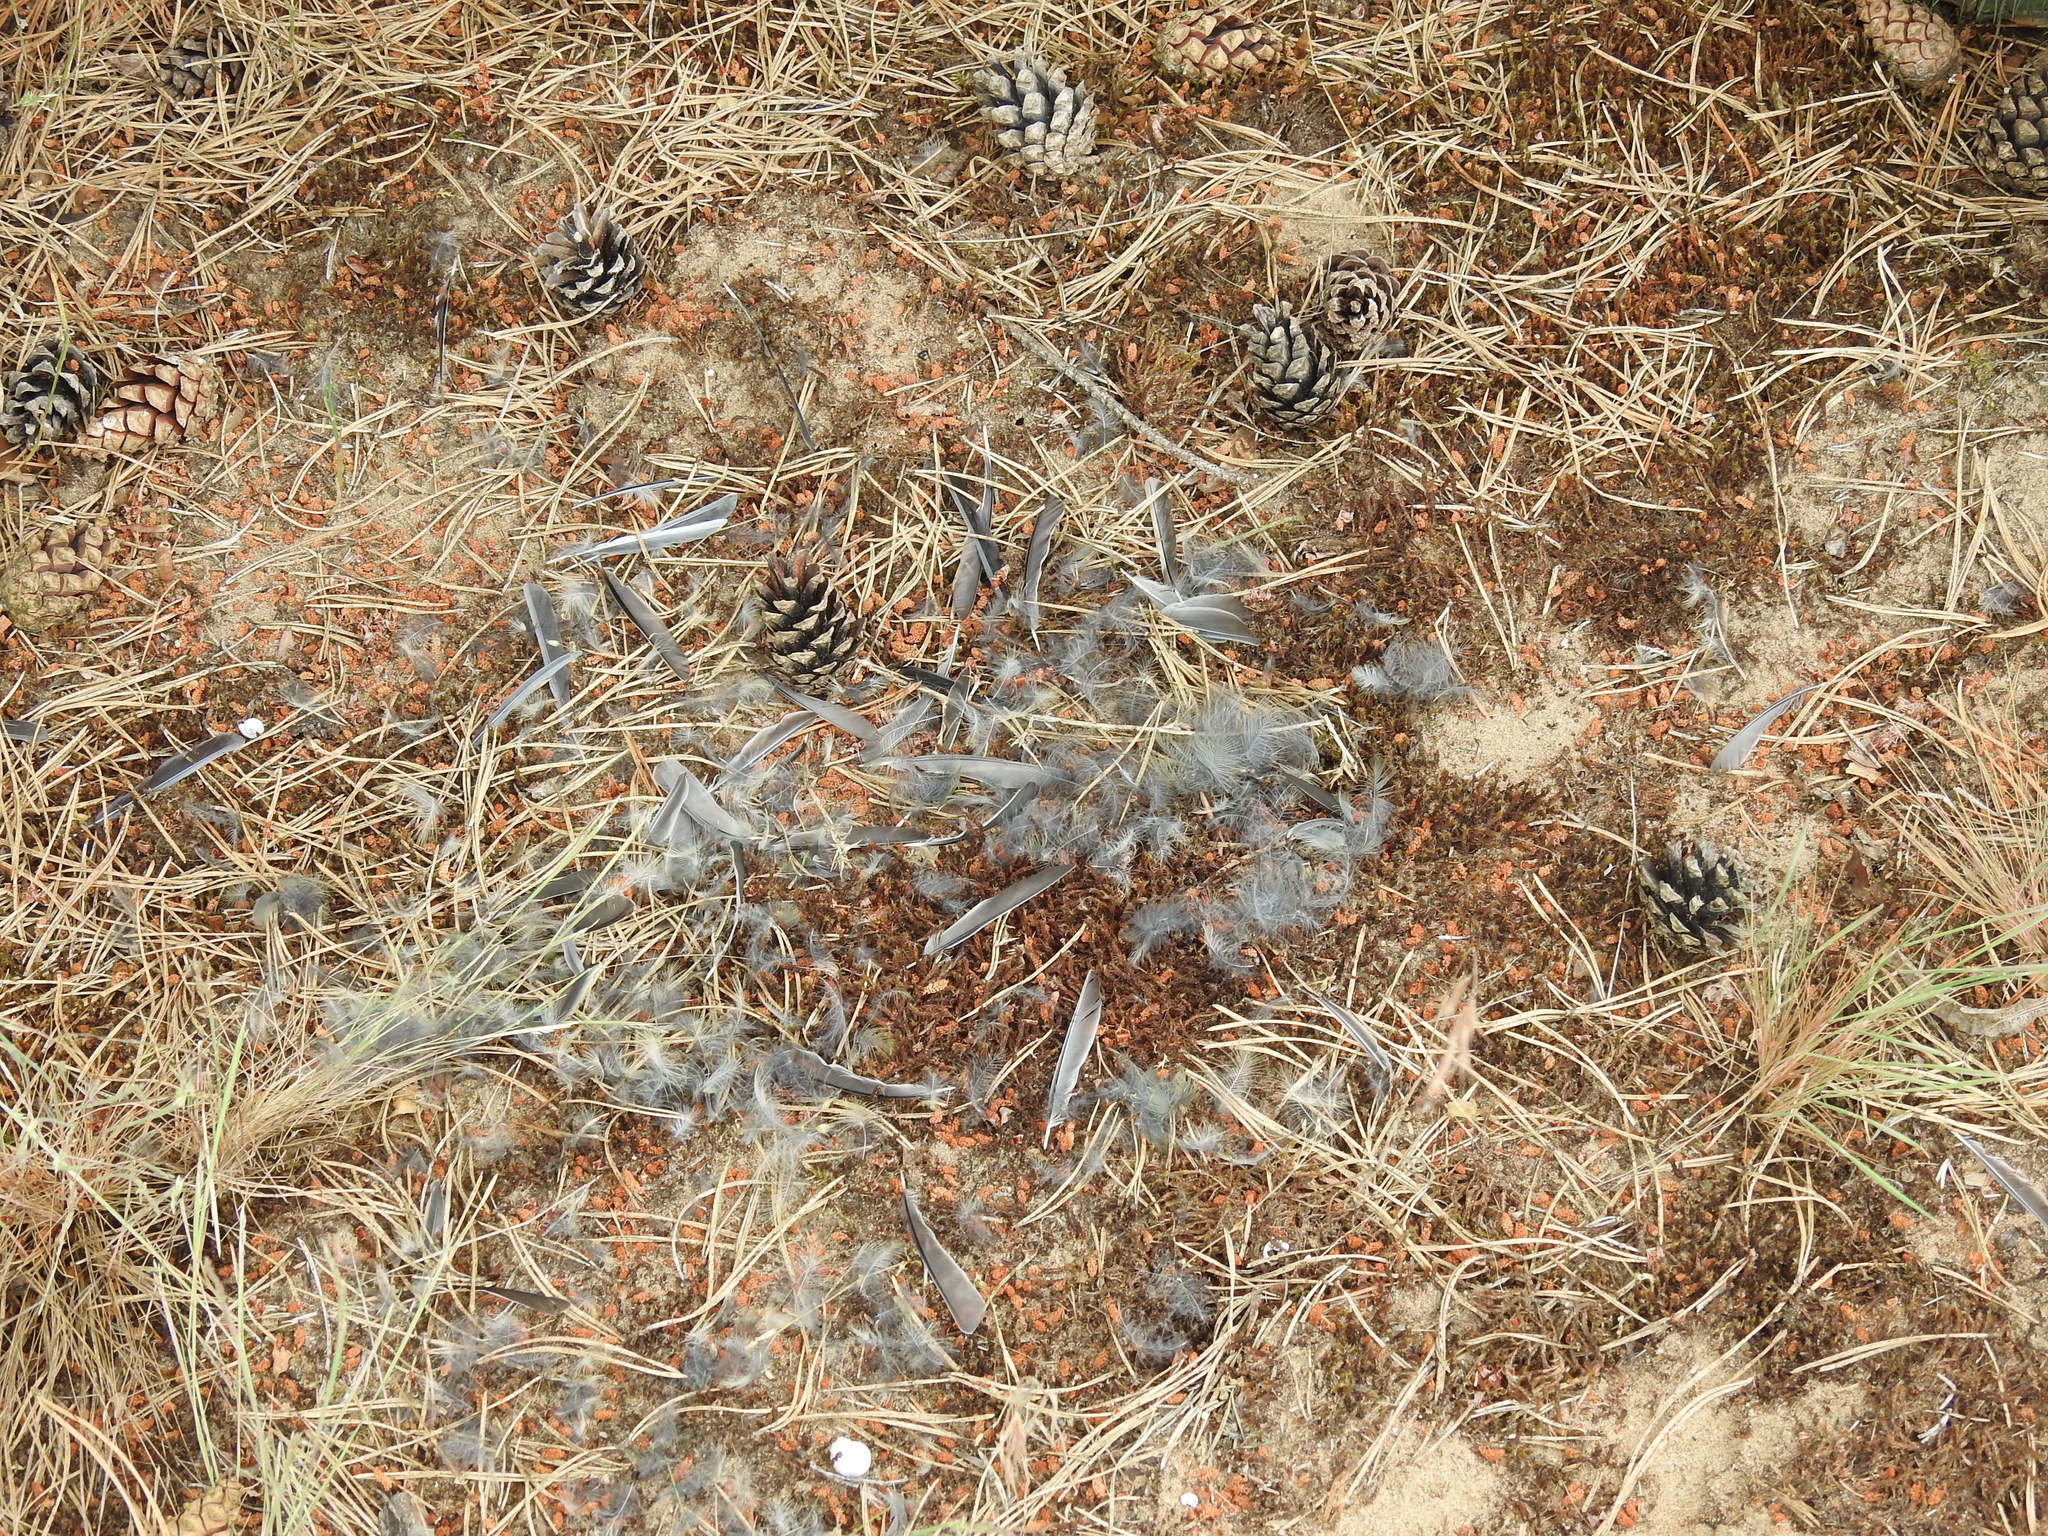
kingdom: Animalia
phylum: Chordata
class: Aves
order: Passeriformes
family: Paridae
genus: Parus
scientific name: Parus major
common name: Great tit
